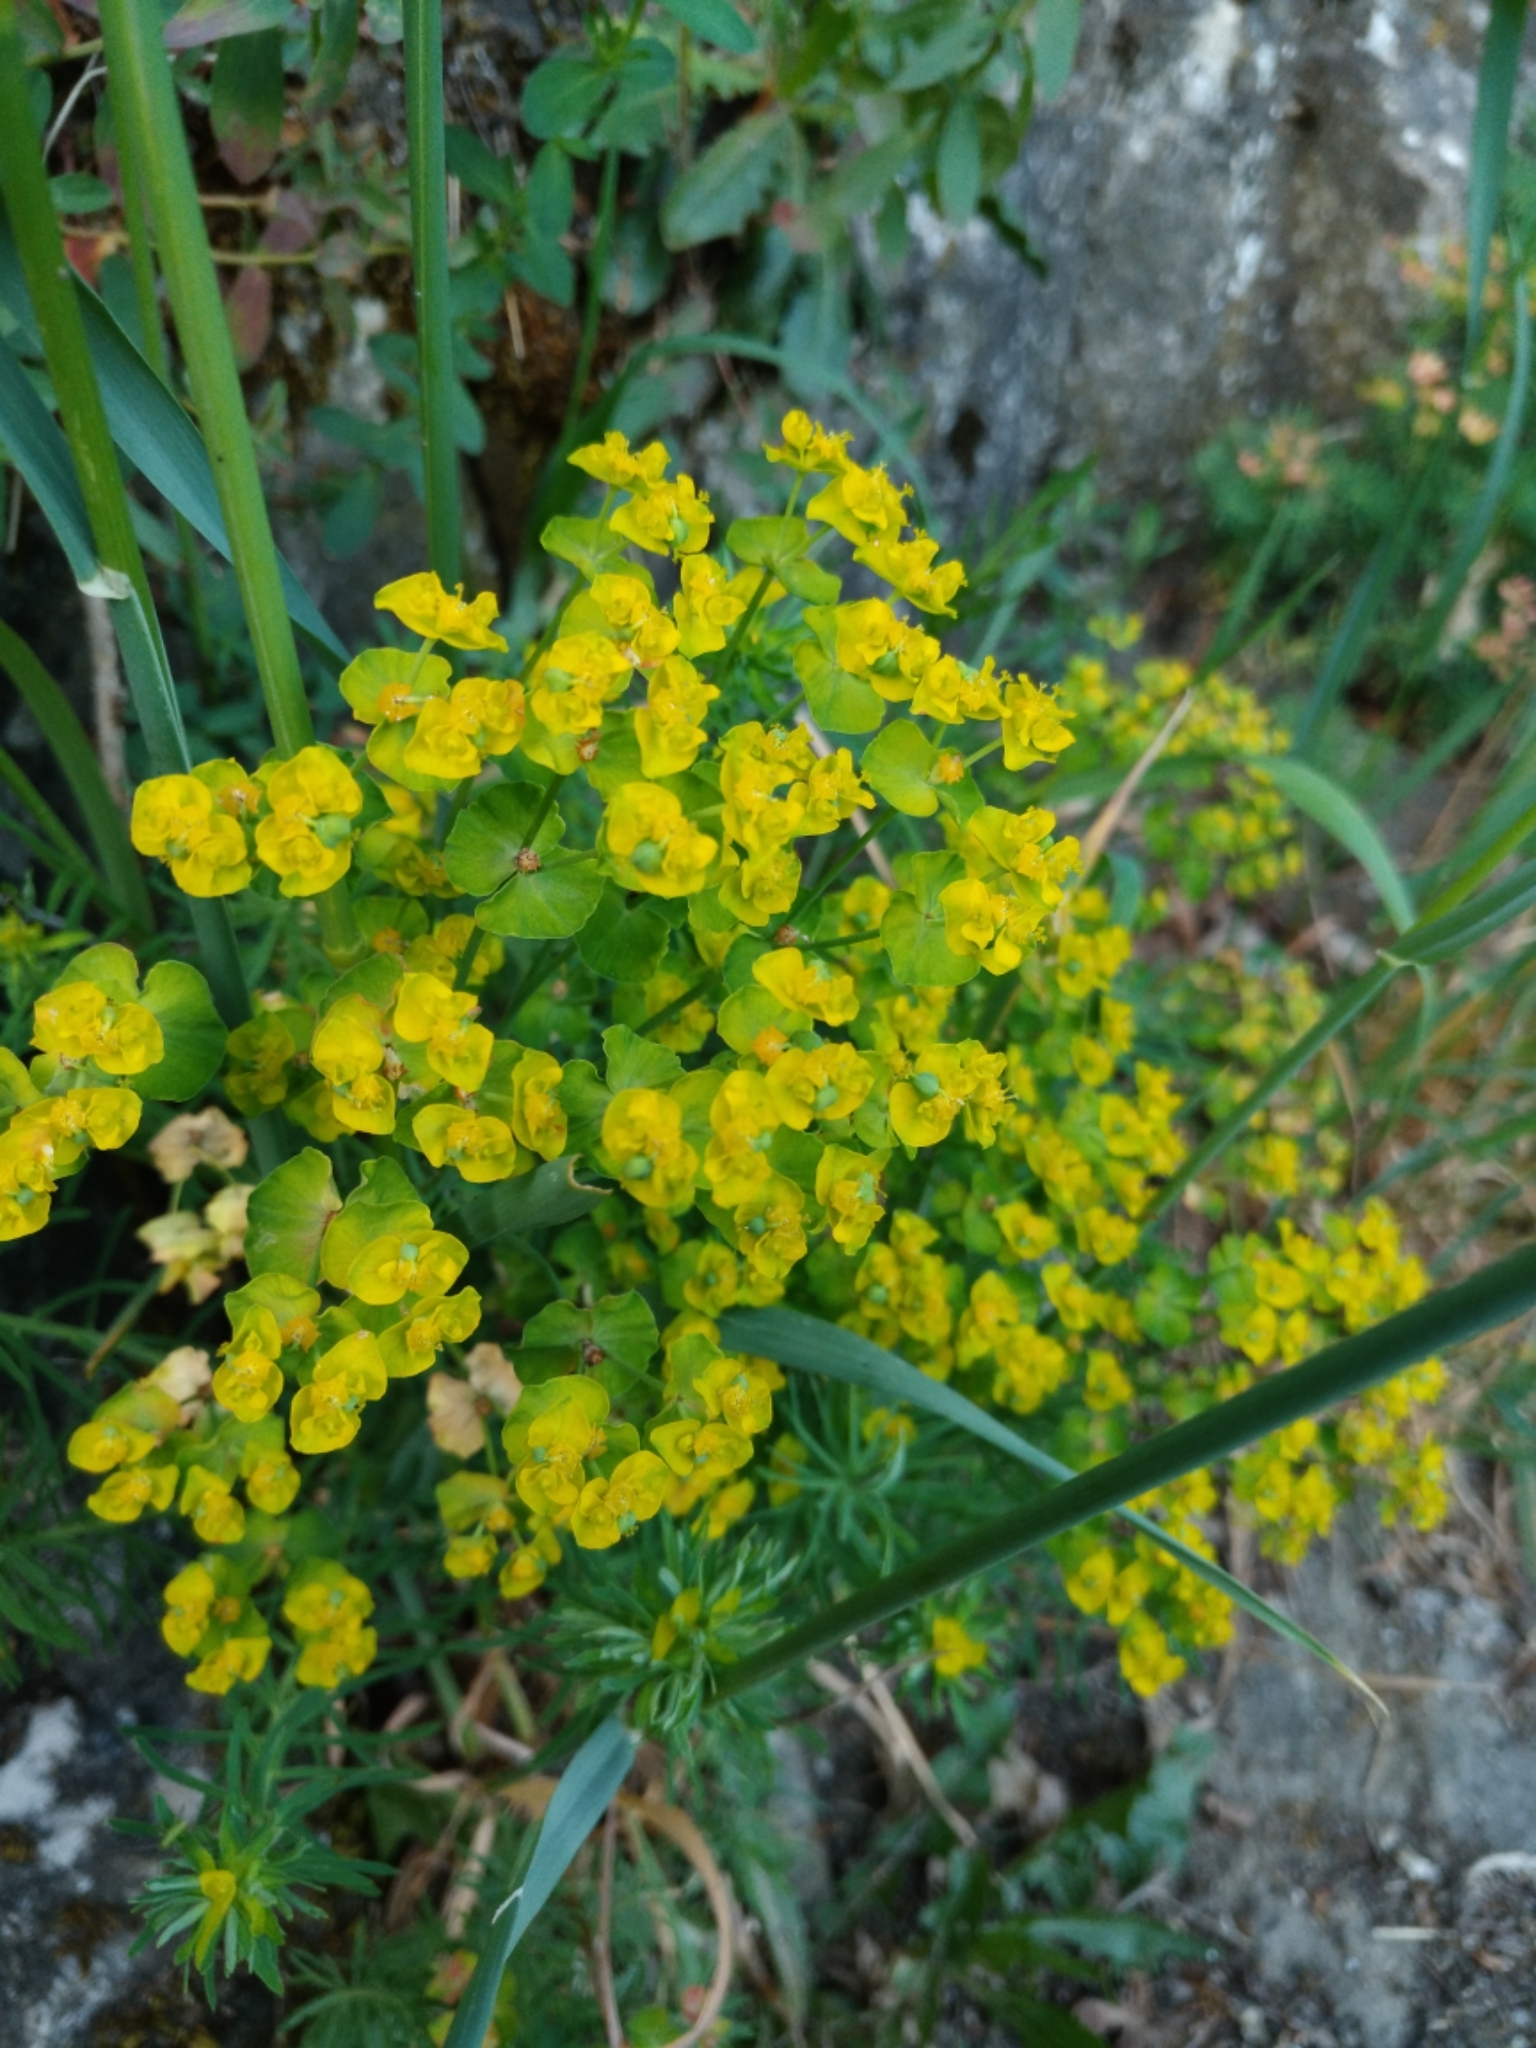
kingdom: Plantae
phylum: Tracheophyta
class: Magnoliopsida
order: Malpighiales
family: Euphorbiaceae
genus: Euphorbia
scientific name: Euphorbia cyparissias
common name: Cypress spurge
